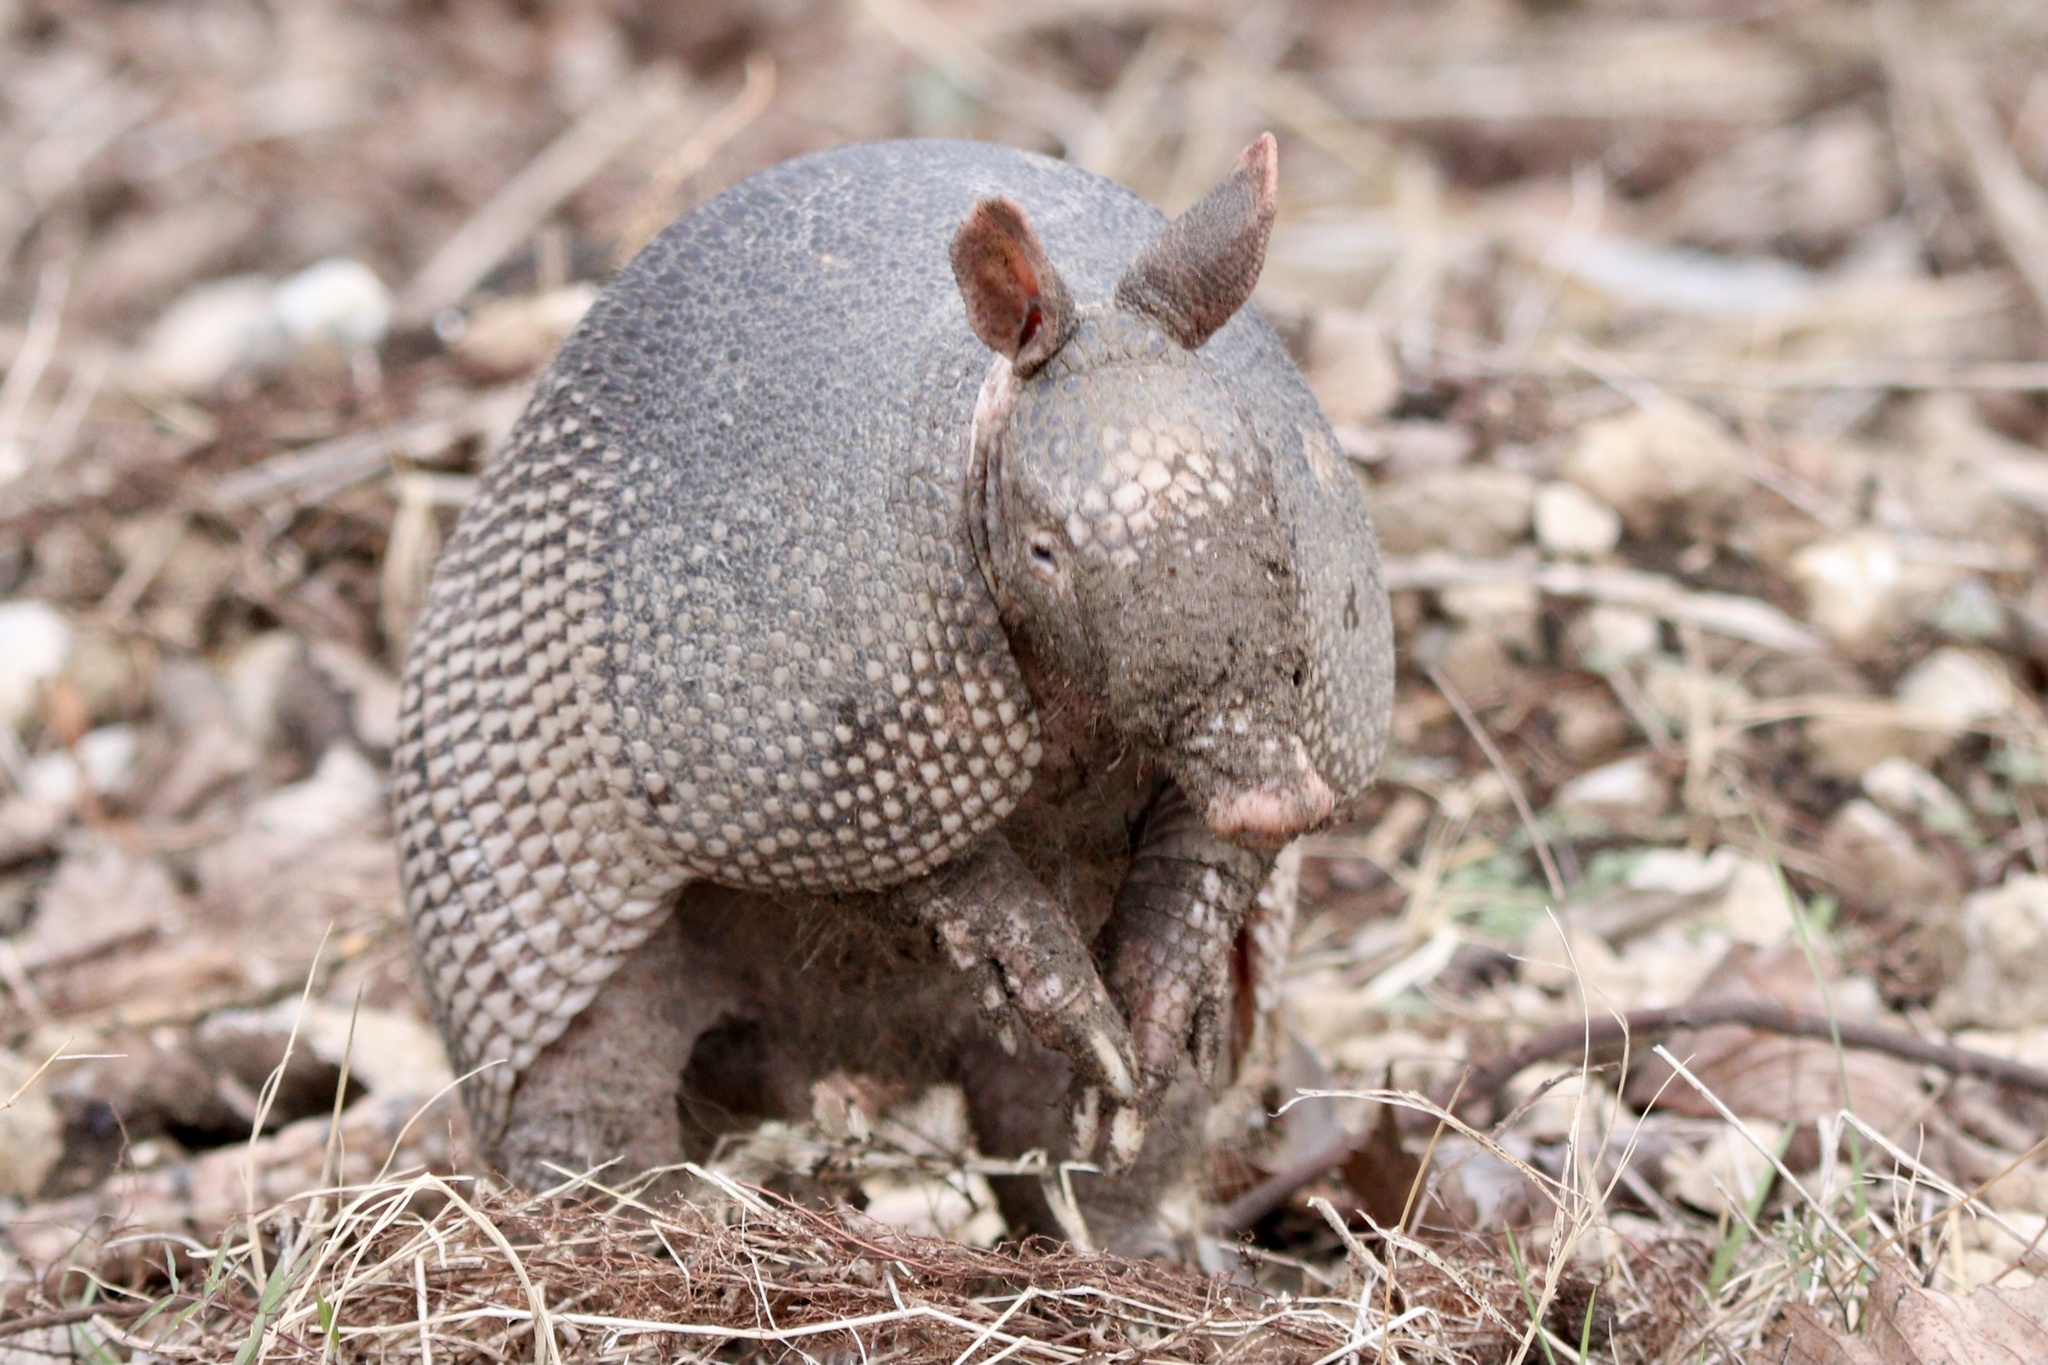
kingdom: Animalia
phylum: Chordata
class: Mammalia
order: Cingulata
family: Dasypodidae
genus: Dasypus
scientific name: Dasypus novemcinctus
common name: Nine-banded armadillo
